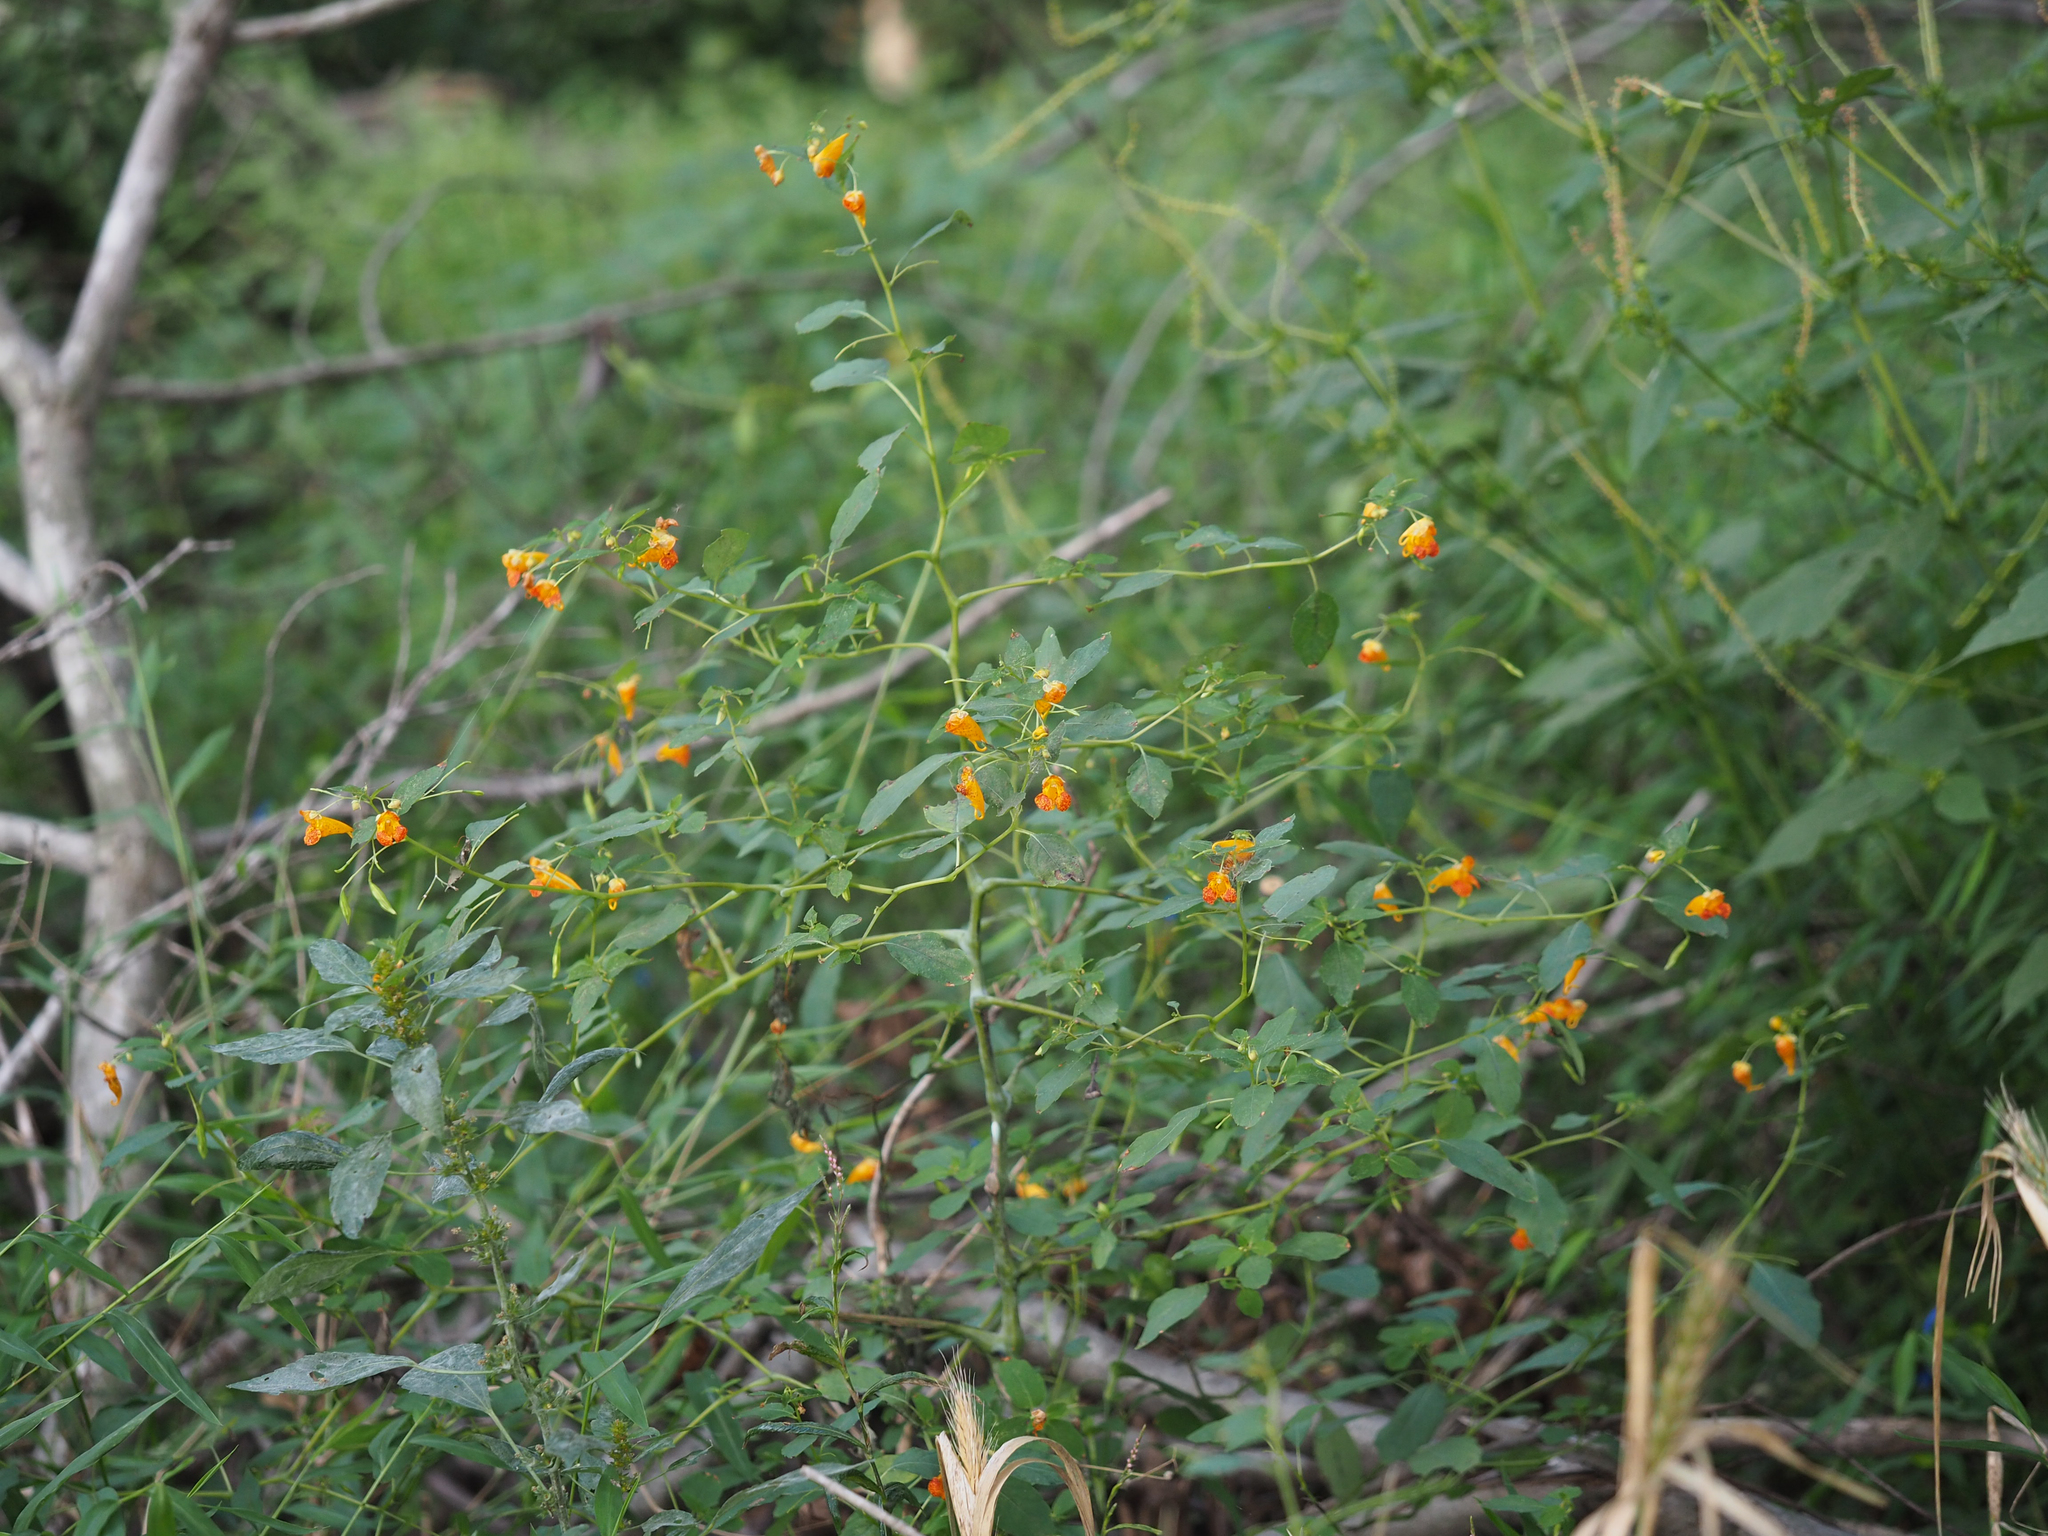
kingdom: Plantae
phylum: Tracheophyta
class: Magnoliopsida
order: Ericales
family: Balsaminaceae
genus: Impatiens
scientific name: Impatiens capensis
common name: Orange balsam
